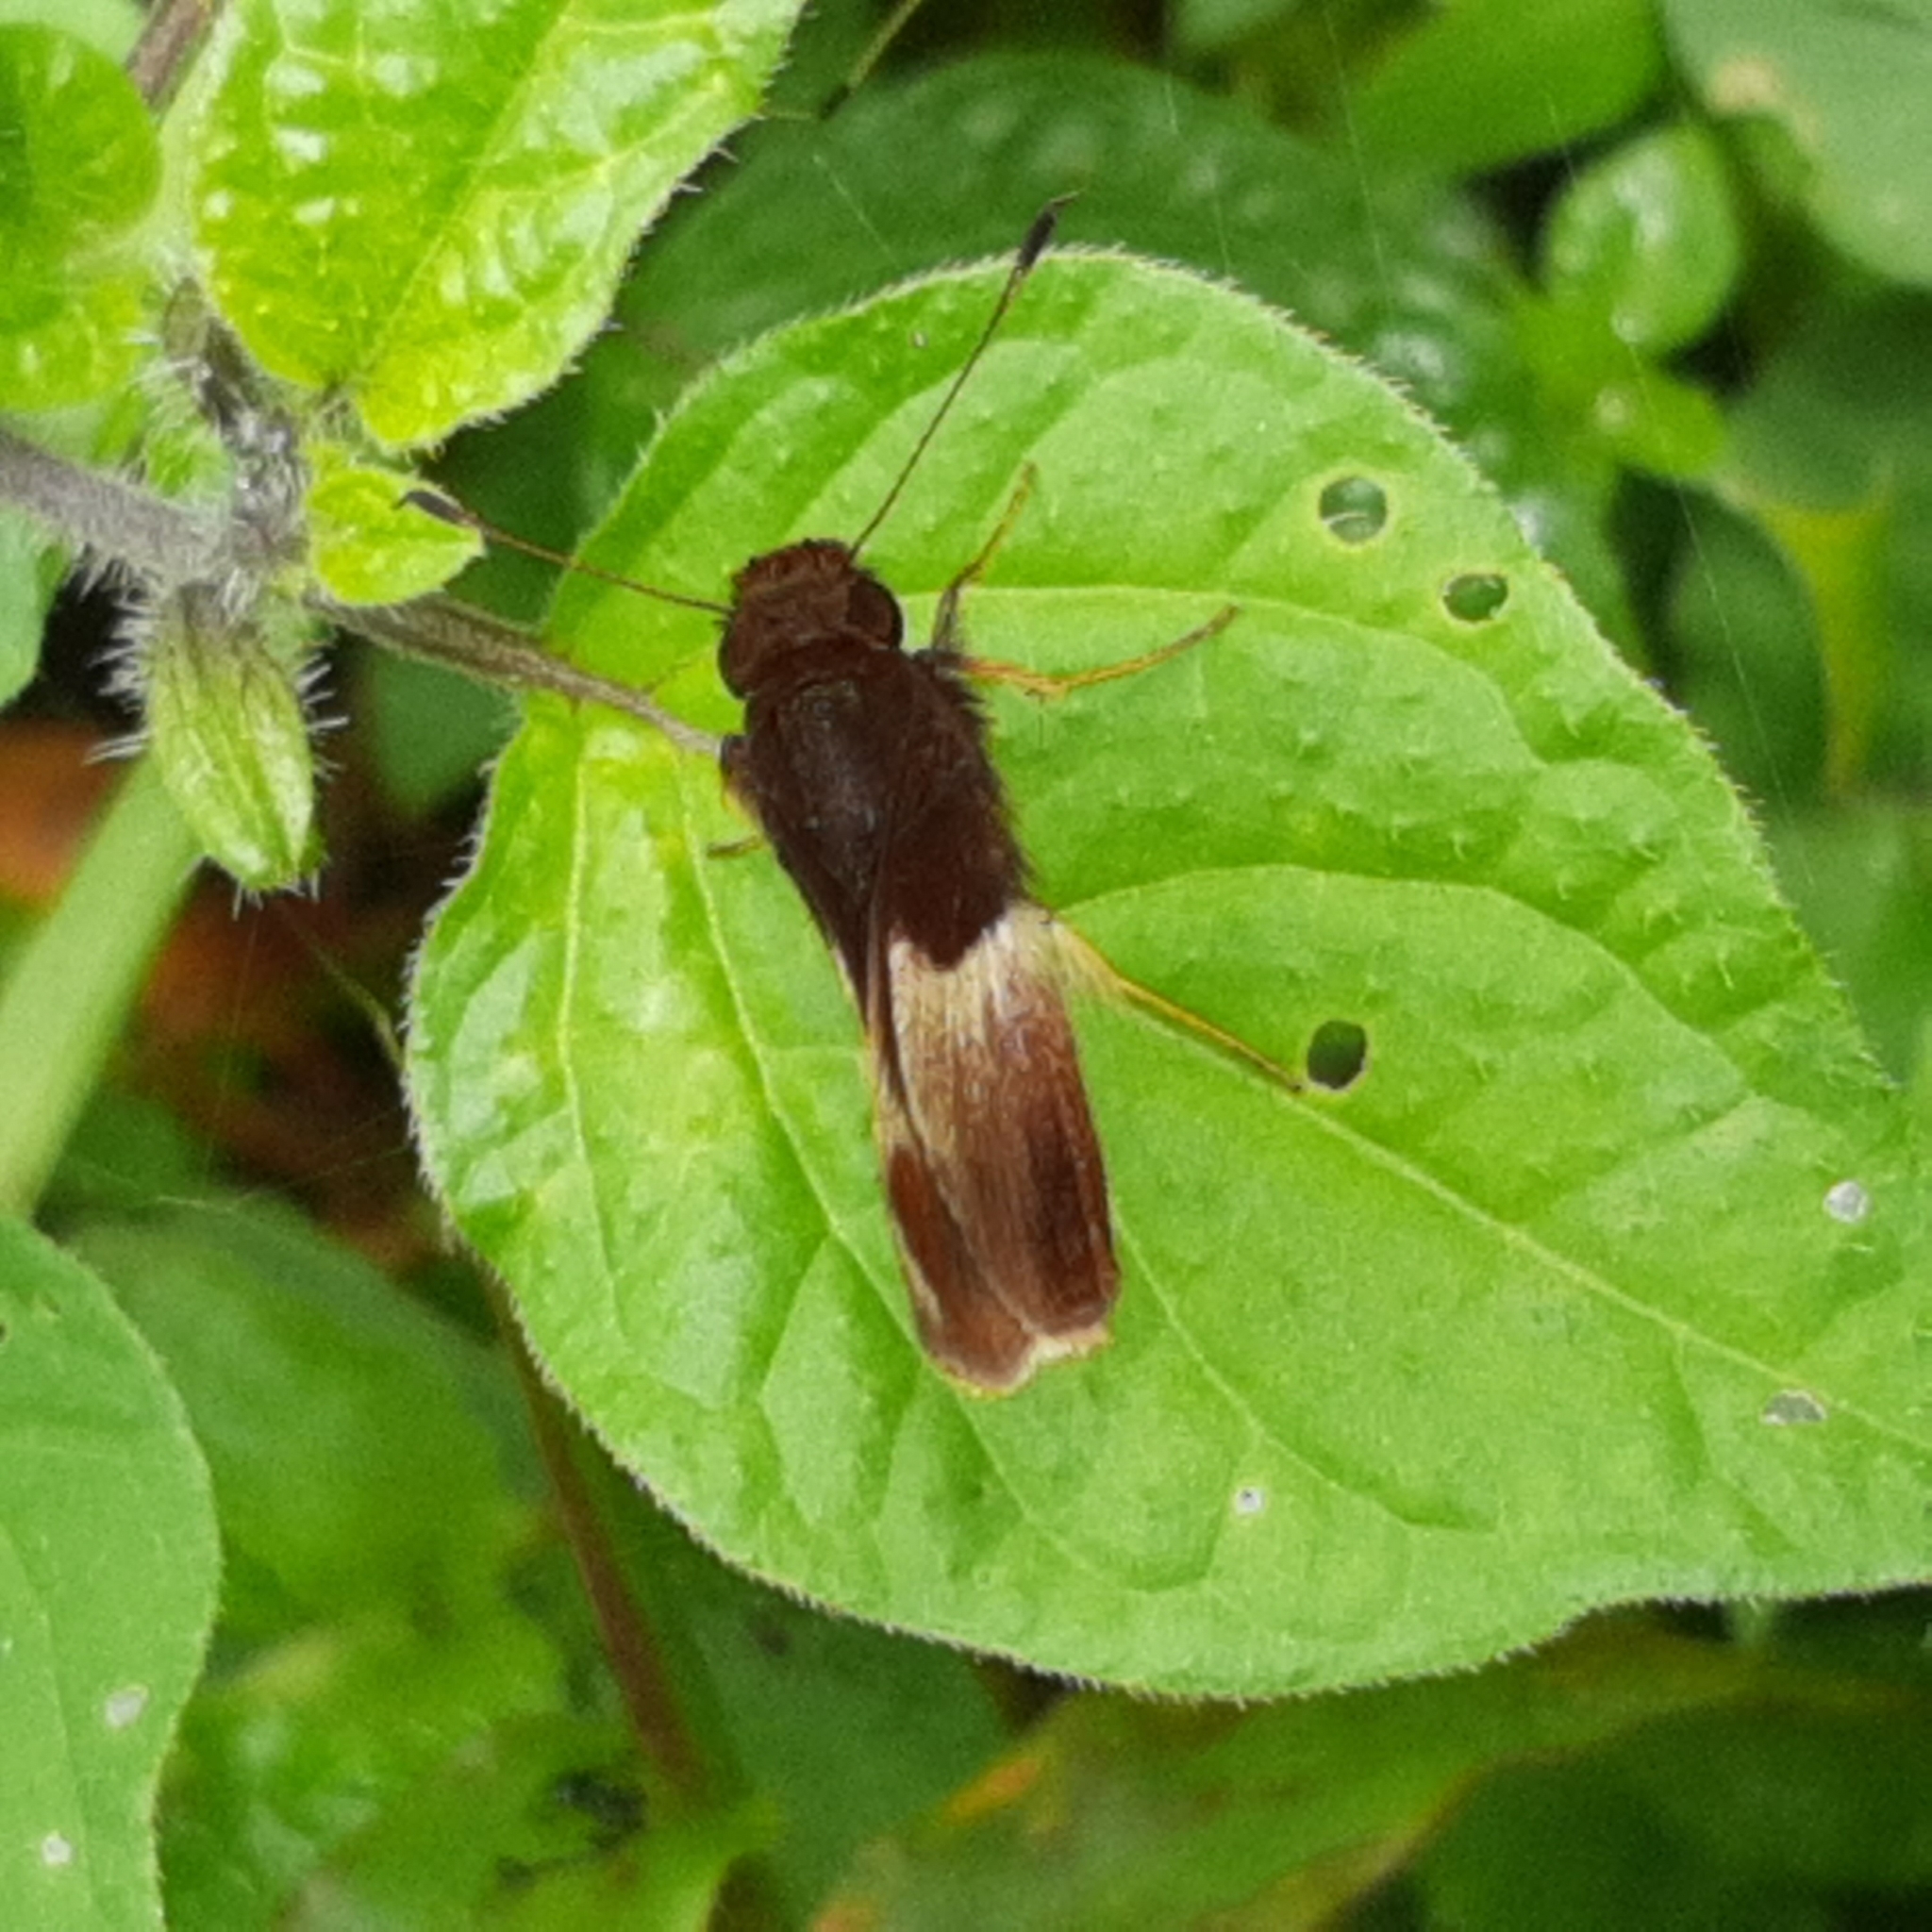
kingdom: Animalia
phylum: Arthropoda
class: Insecta
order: Lepidoptera
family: Hesperiidae
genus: Moeris
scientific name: Moeris Remella rita
